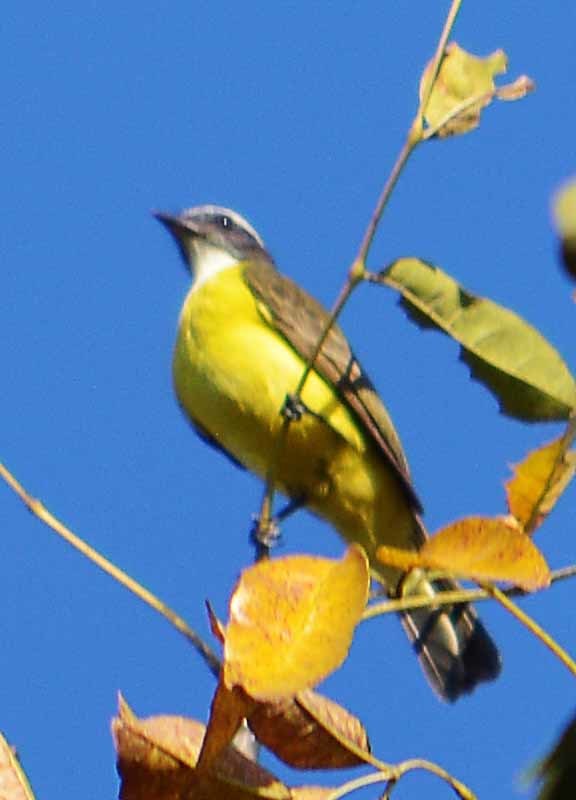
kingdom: Animalia
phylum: Chordata
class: Aves
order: Passeriformes
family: Tyrannidae
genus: Myiozetetes
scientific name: Myiozetetes similis
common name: Social flycatcher
